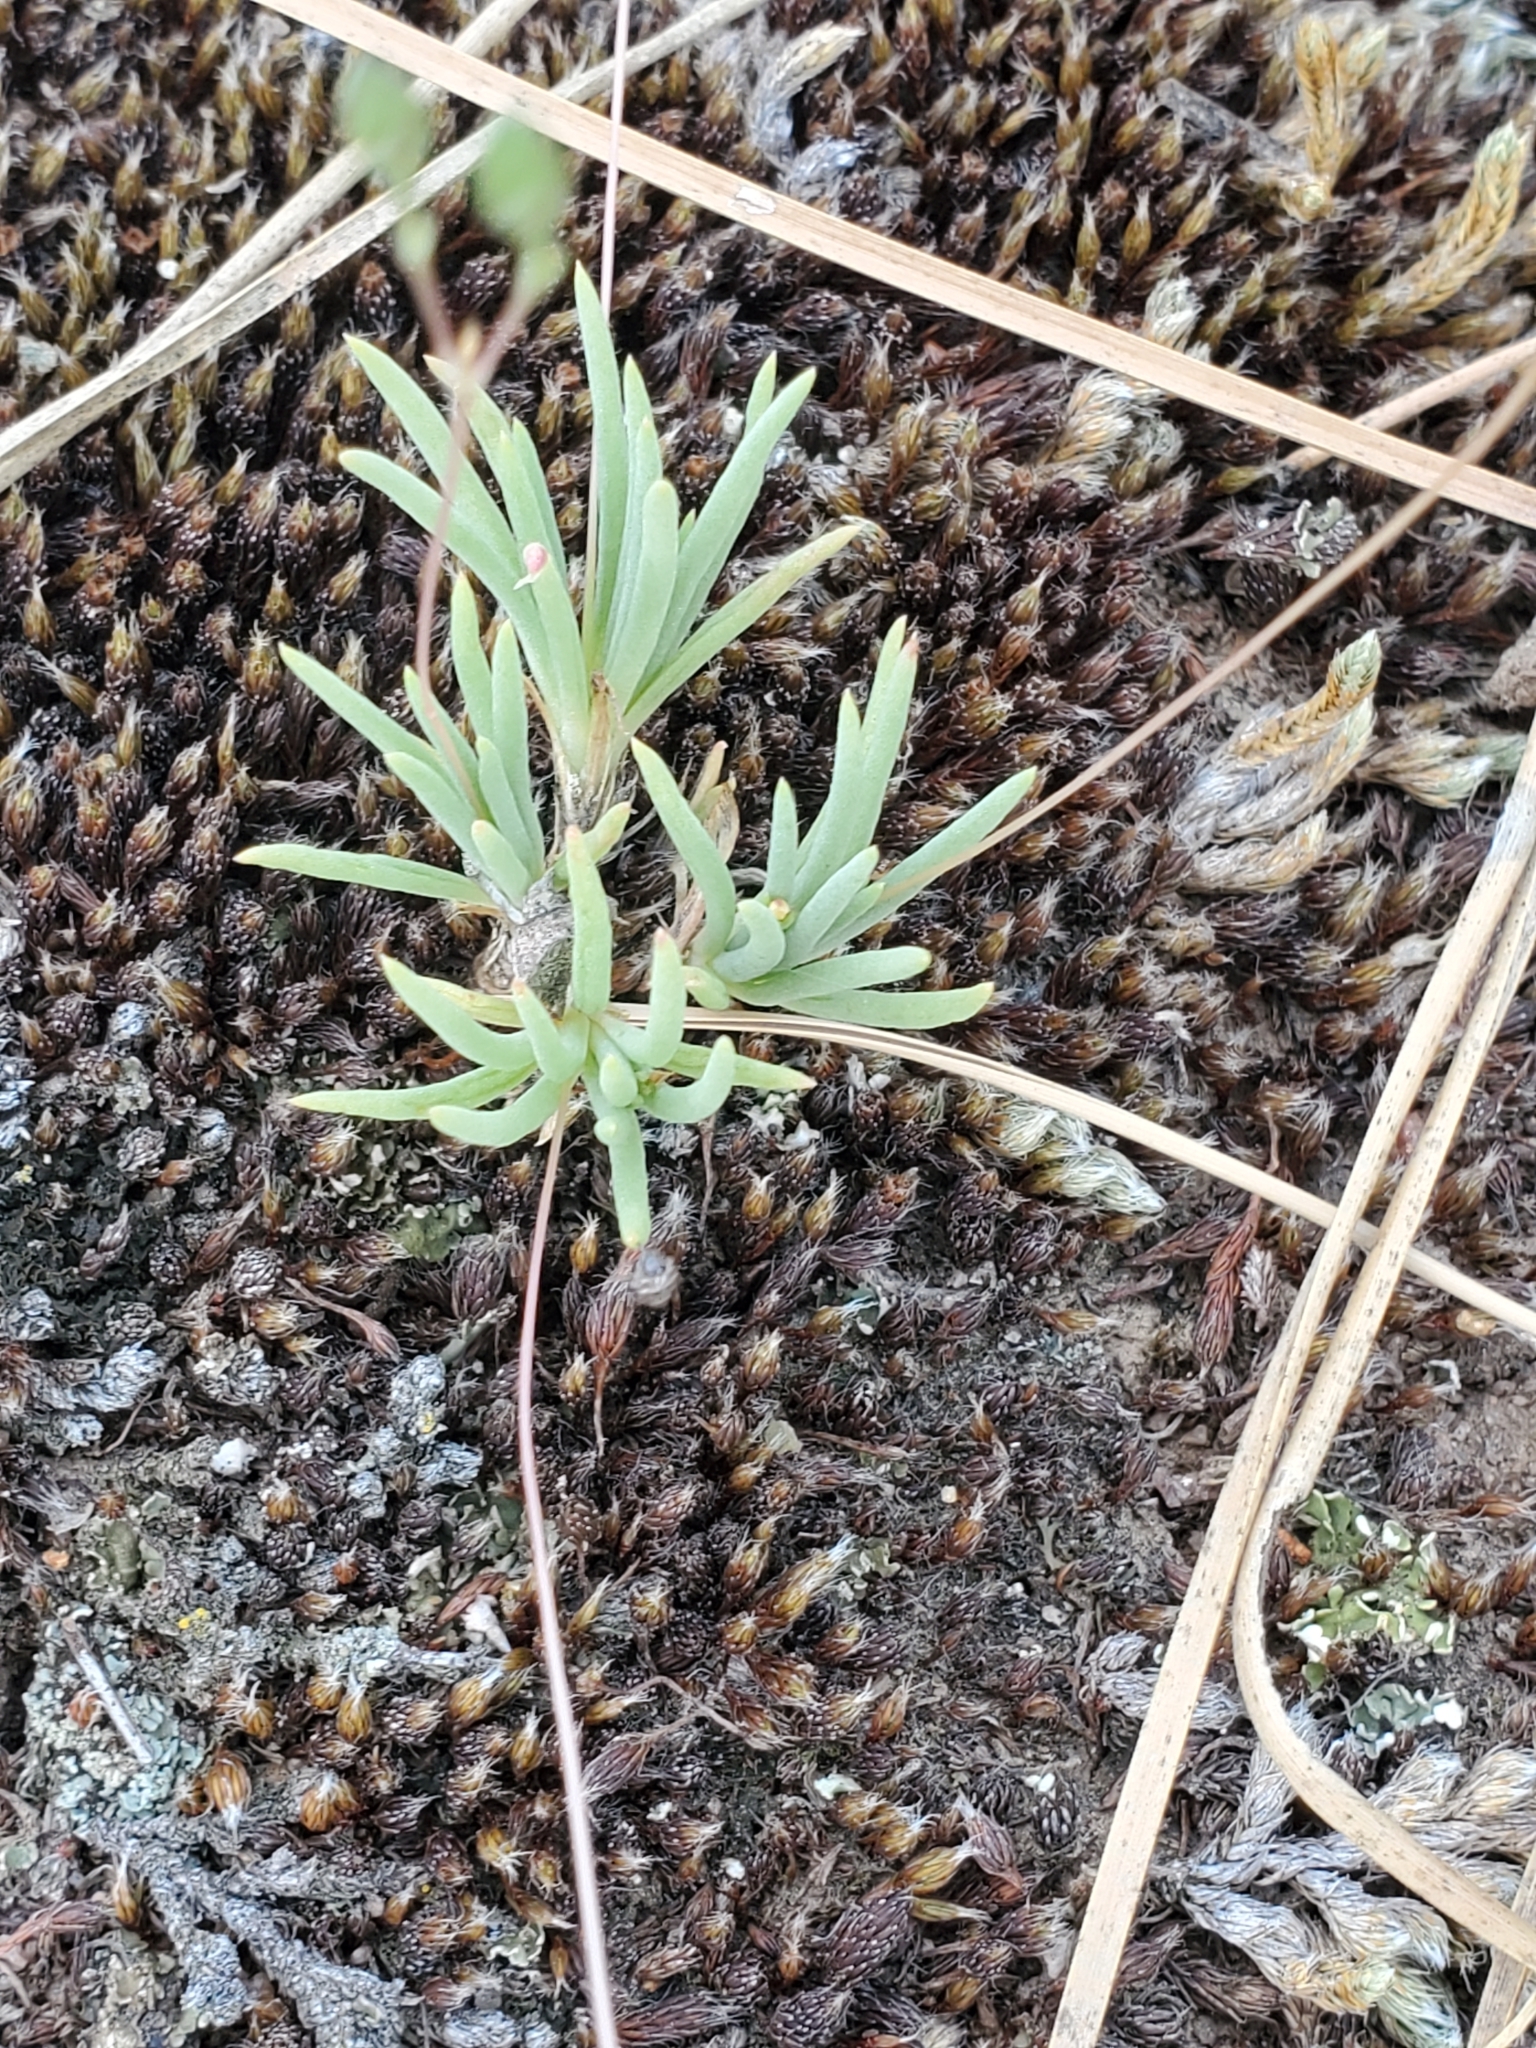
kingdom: Plantae
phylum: Tracheophyta
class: Magnoliopsida
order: Caryophyllales
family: Montiaceae
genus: Phemeranthus
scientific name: Phemeranthus confertiflorus
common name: New mexico fameflower
